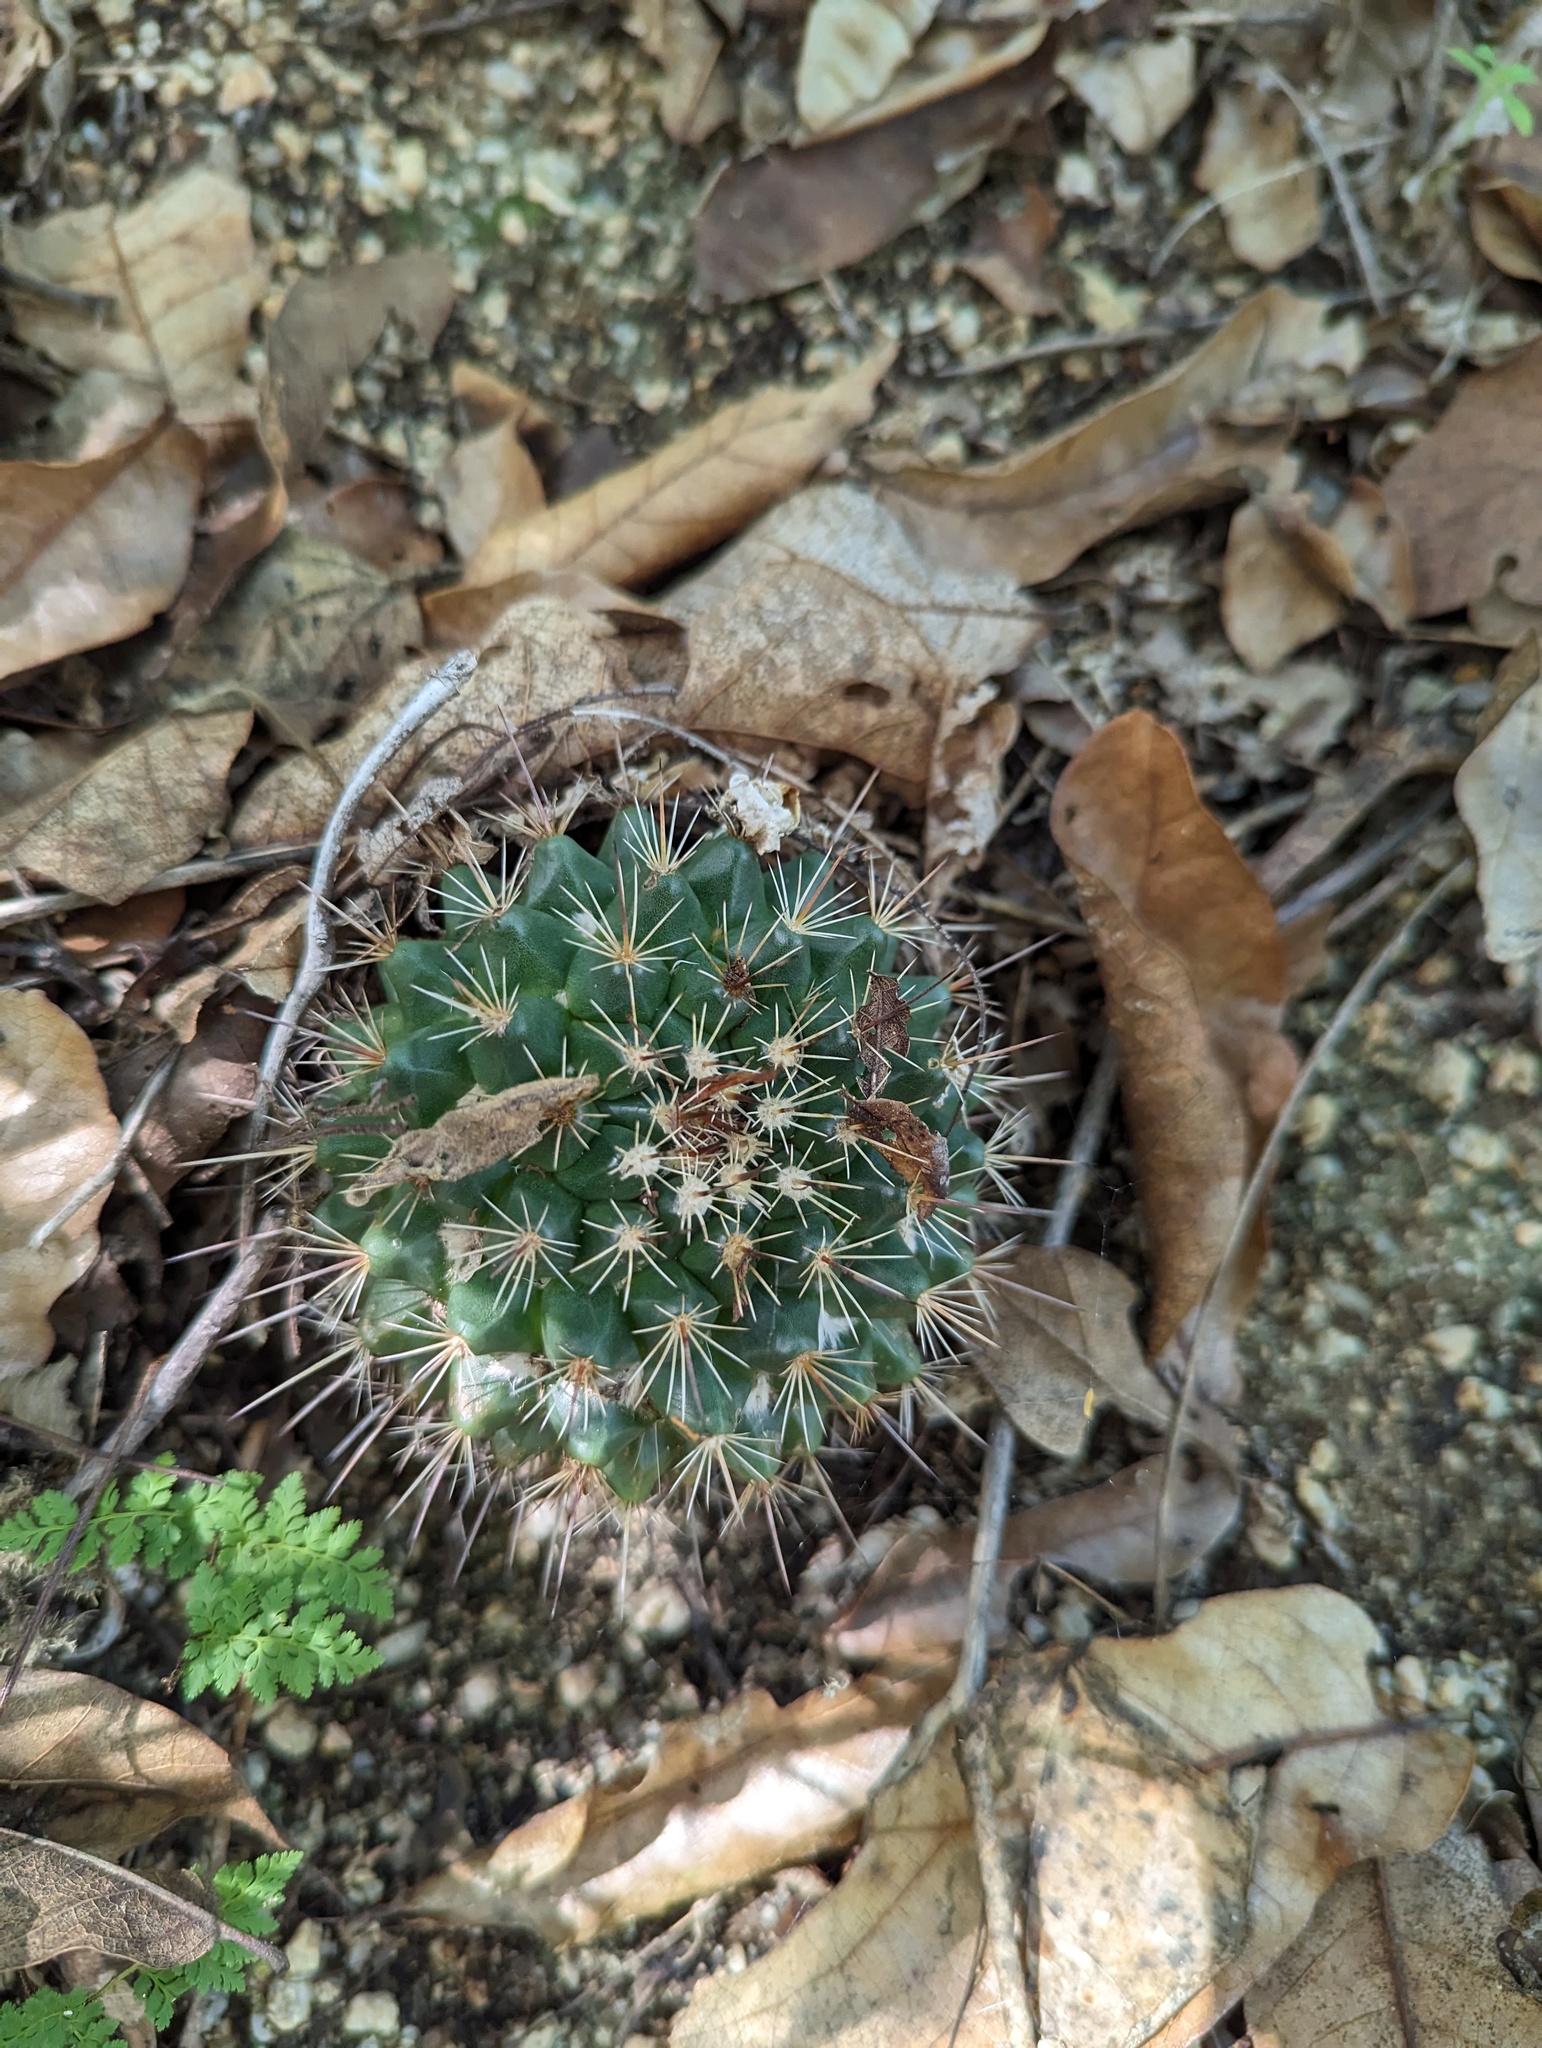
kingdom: Plantae
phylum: Tracheophyta
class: Magnoliopsida
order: Caryophyllales
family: Cactaceae
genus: Mammillaria
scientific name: Mammillaria petrophila
